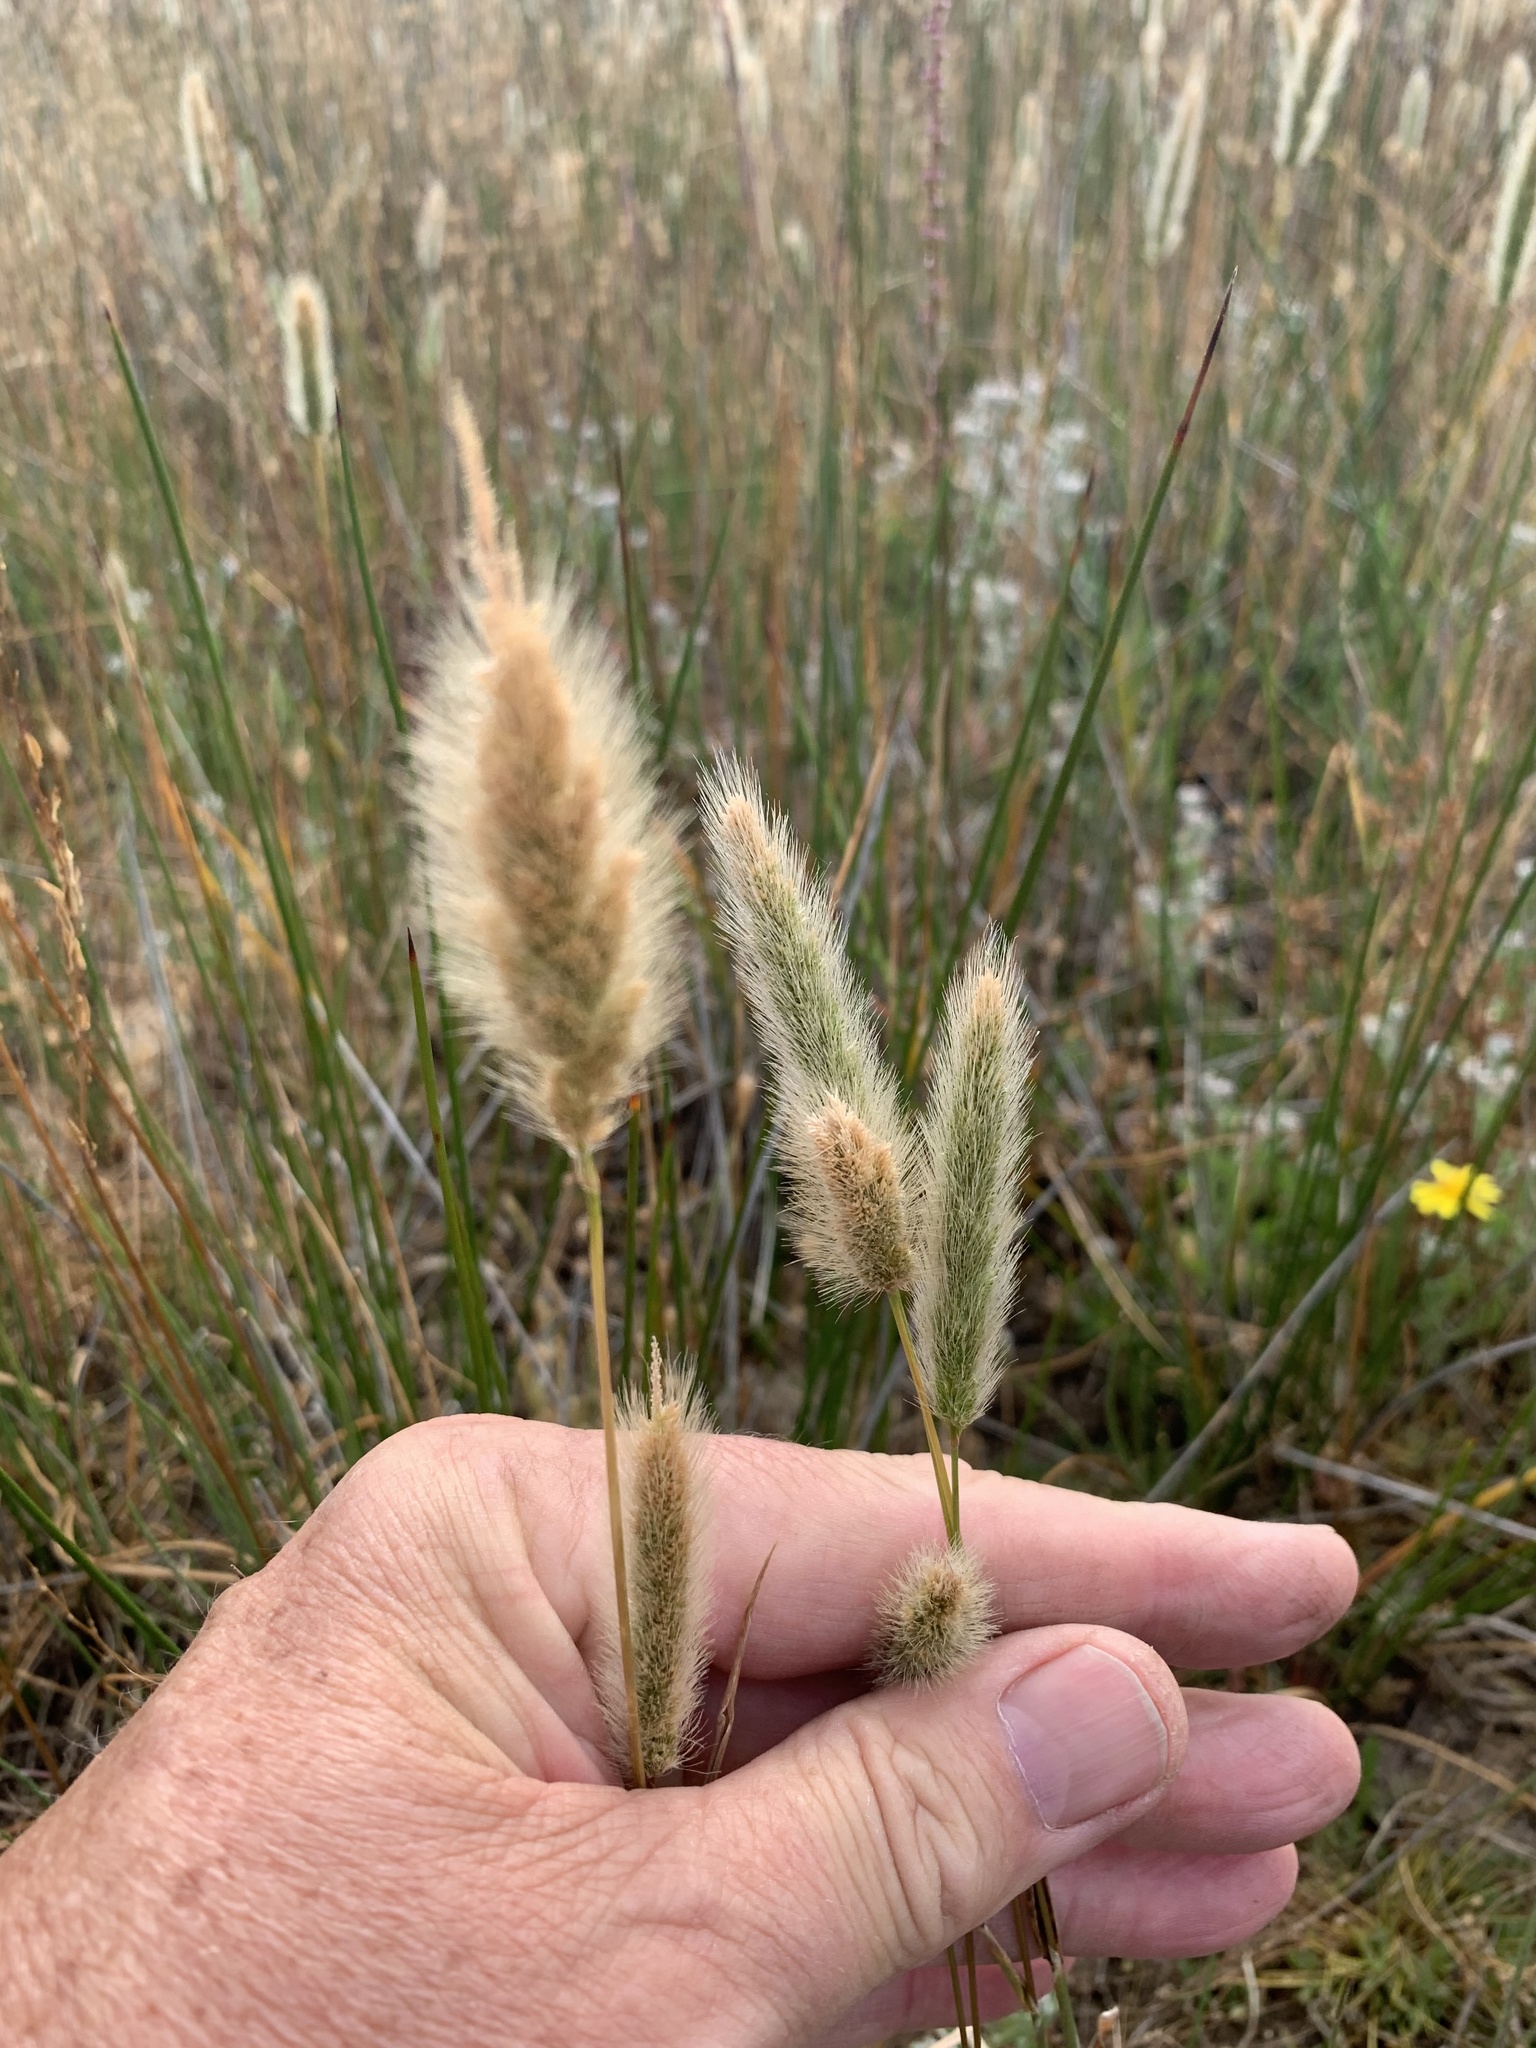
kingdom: Plantae
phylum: Tracheophyta
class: Liliopsida
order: Poales
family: Poaceae
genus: Polypogon
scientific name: Polypogon monspeliensis
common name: Annual rabbitsfoot grass
